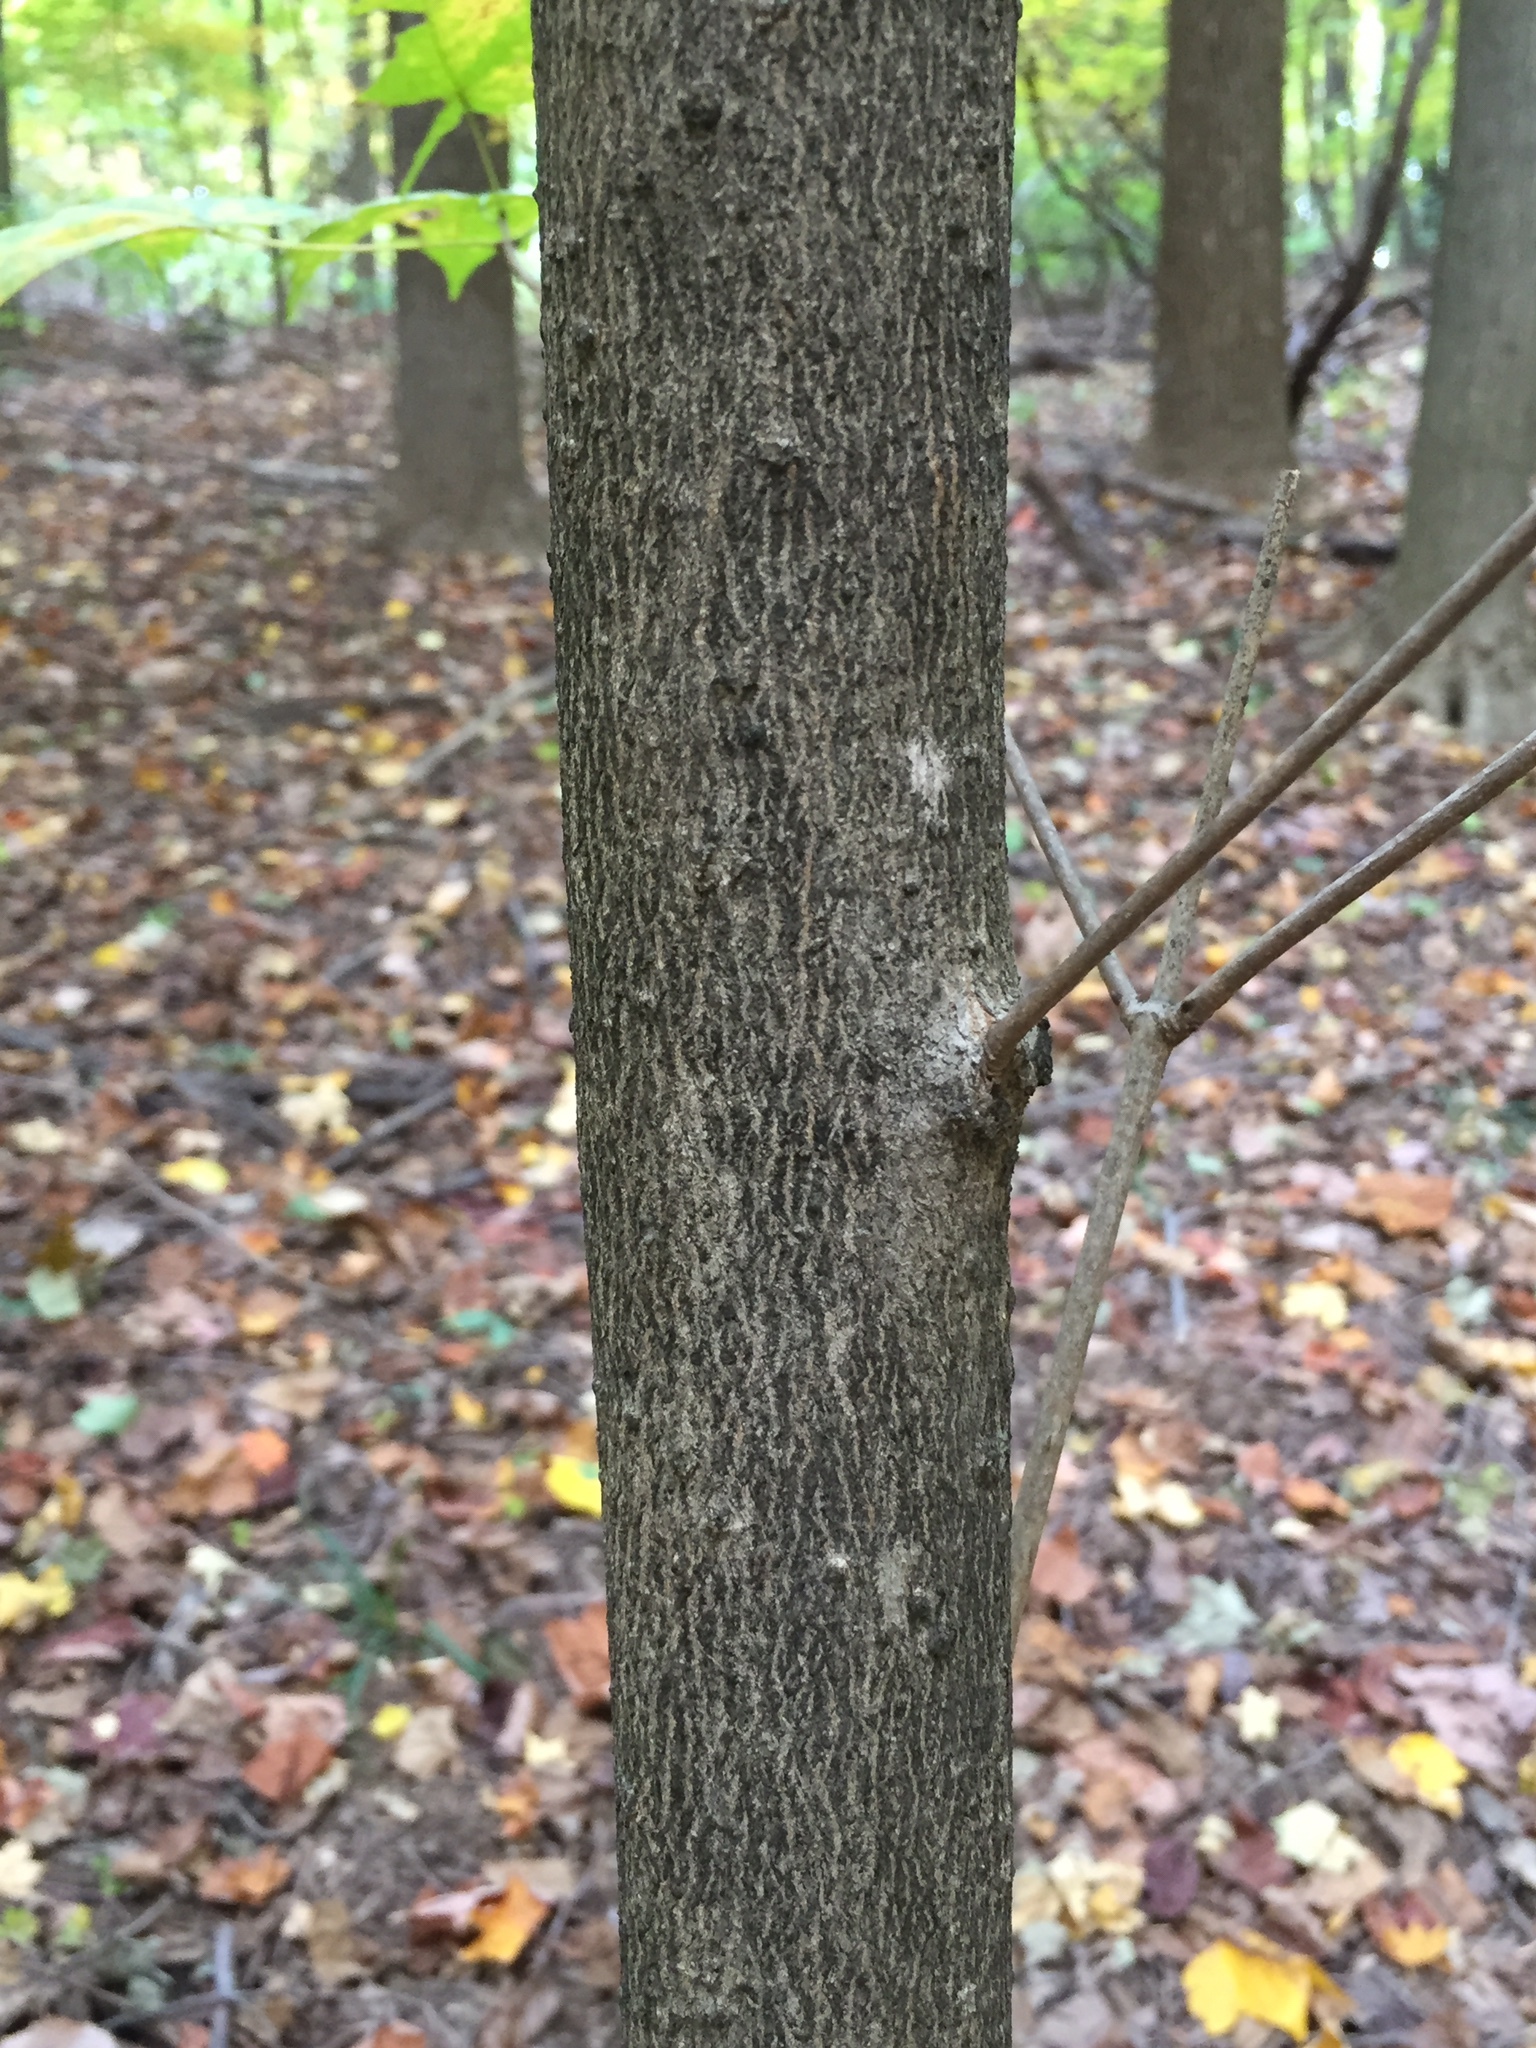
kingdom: Plantae
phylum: Tracheophyta
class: Magnoliopsida
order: Sapindales
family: Sapindaceae
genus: Acer
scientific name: Acer saccharum
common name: Sugar maple
